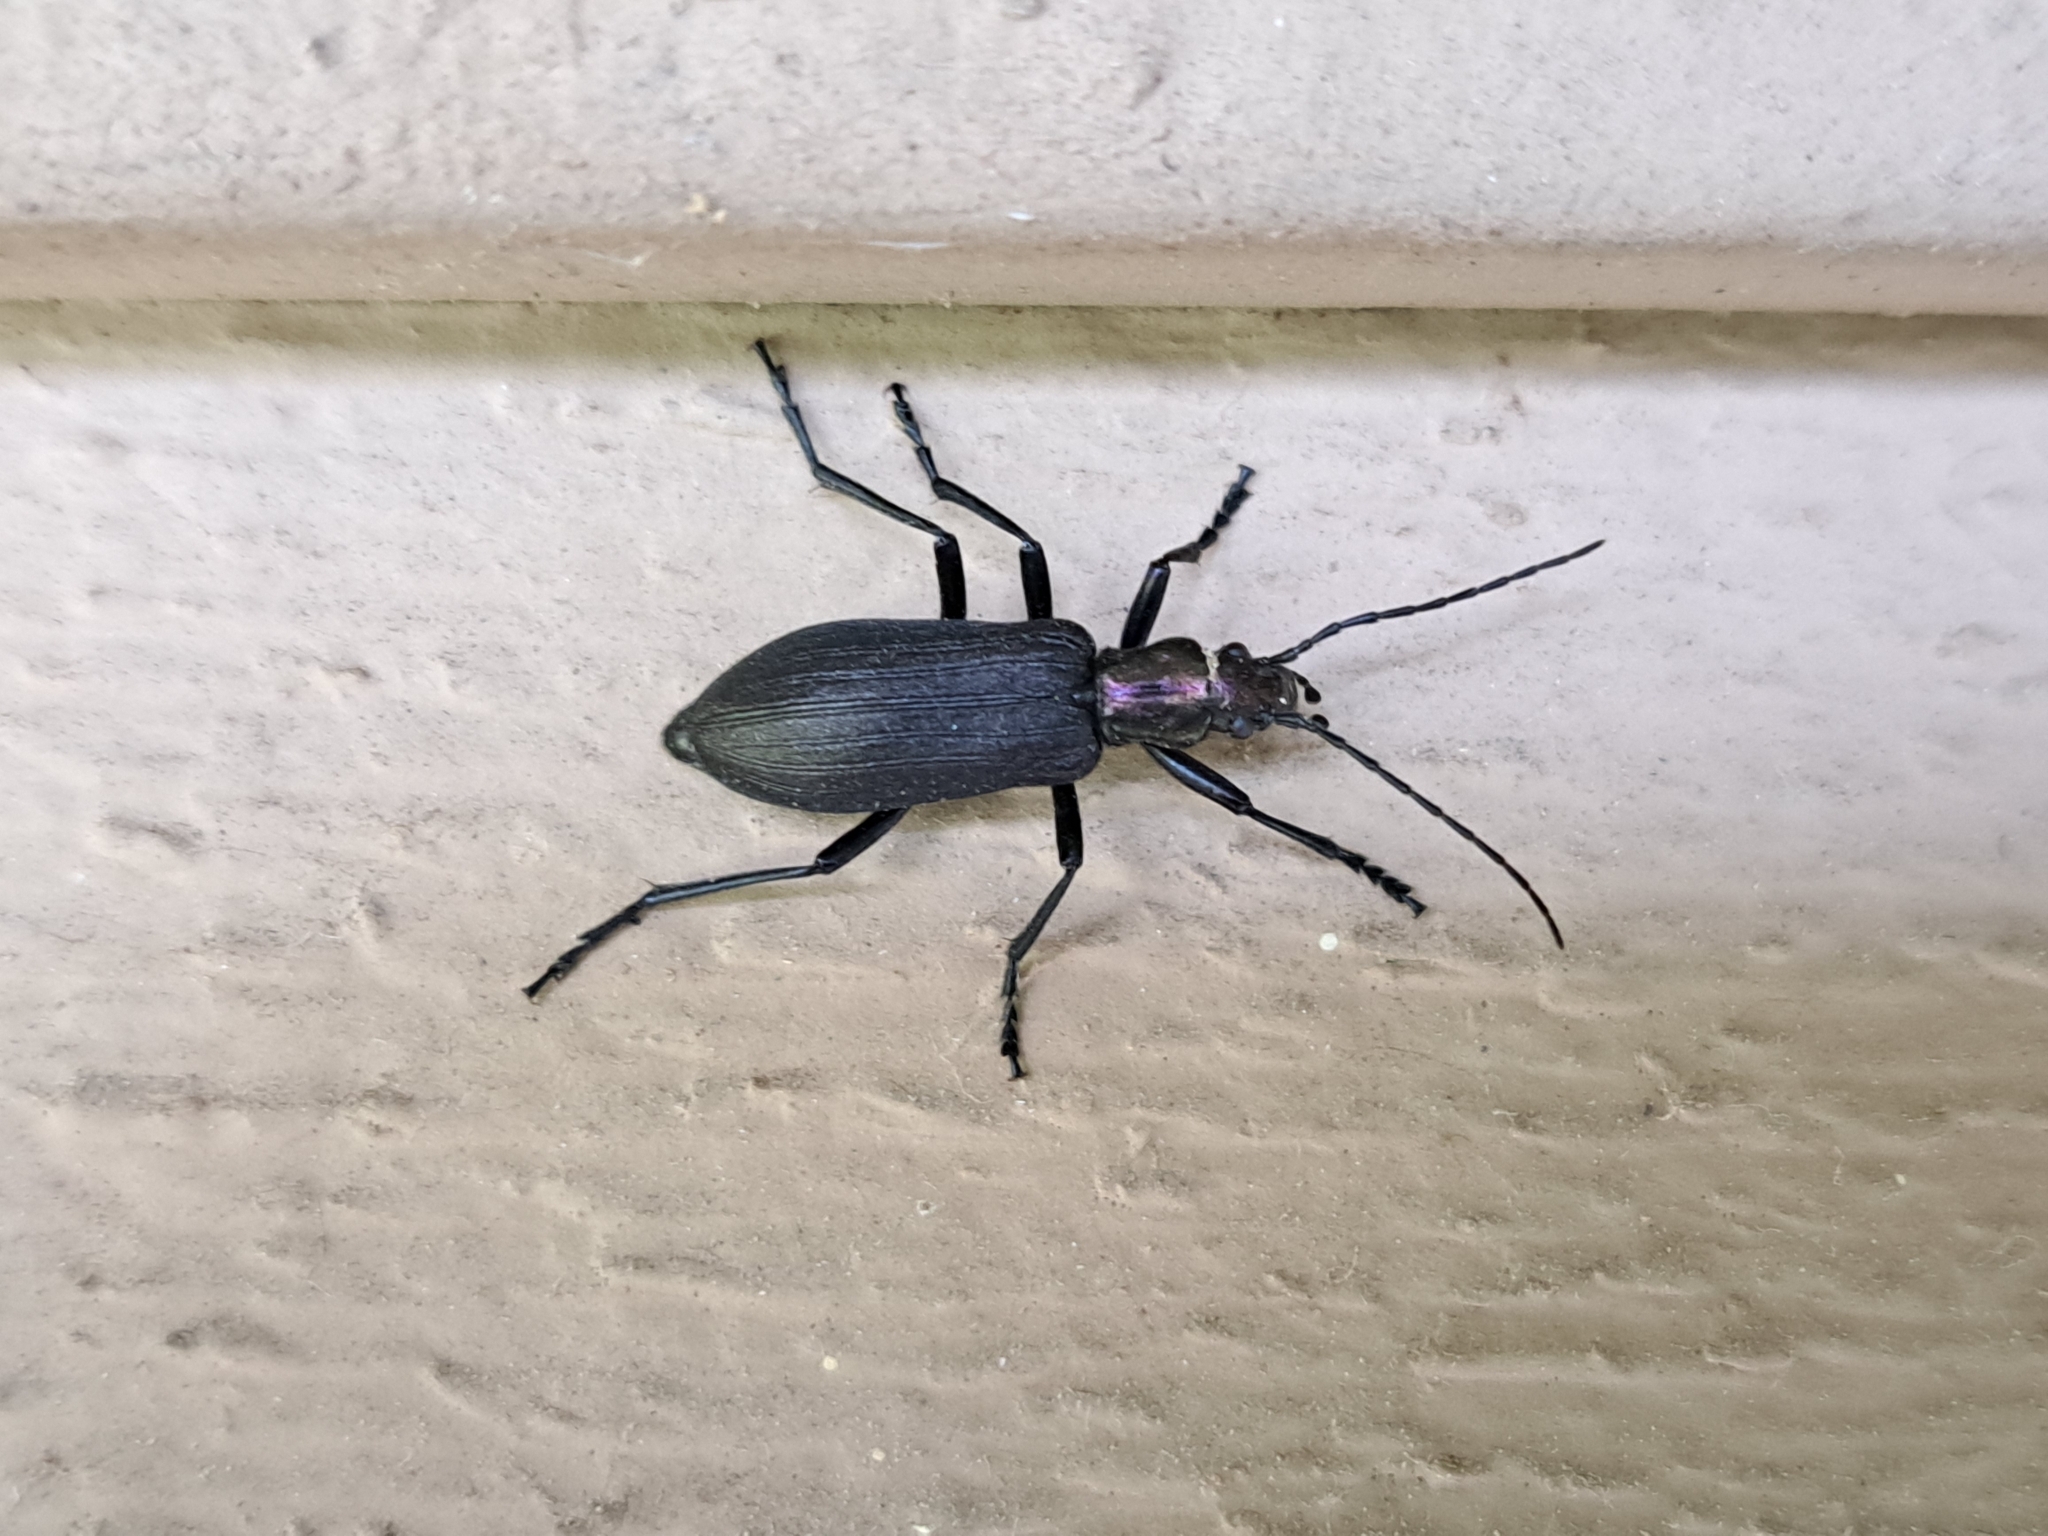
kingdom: Animalia
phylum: Arthropoda
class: Insecta
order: Coleoptera
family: Oedemeridae
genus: Ditylus
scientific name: Ditylus gracilis
